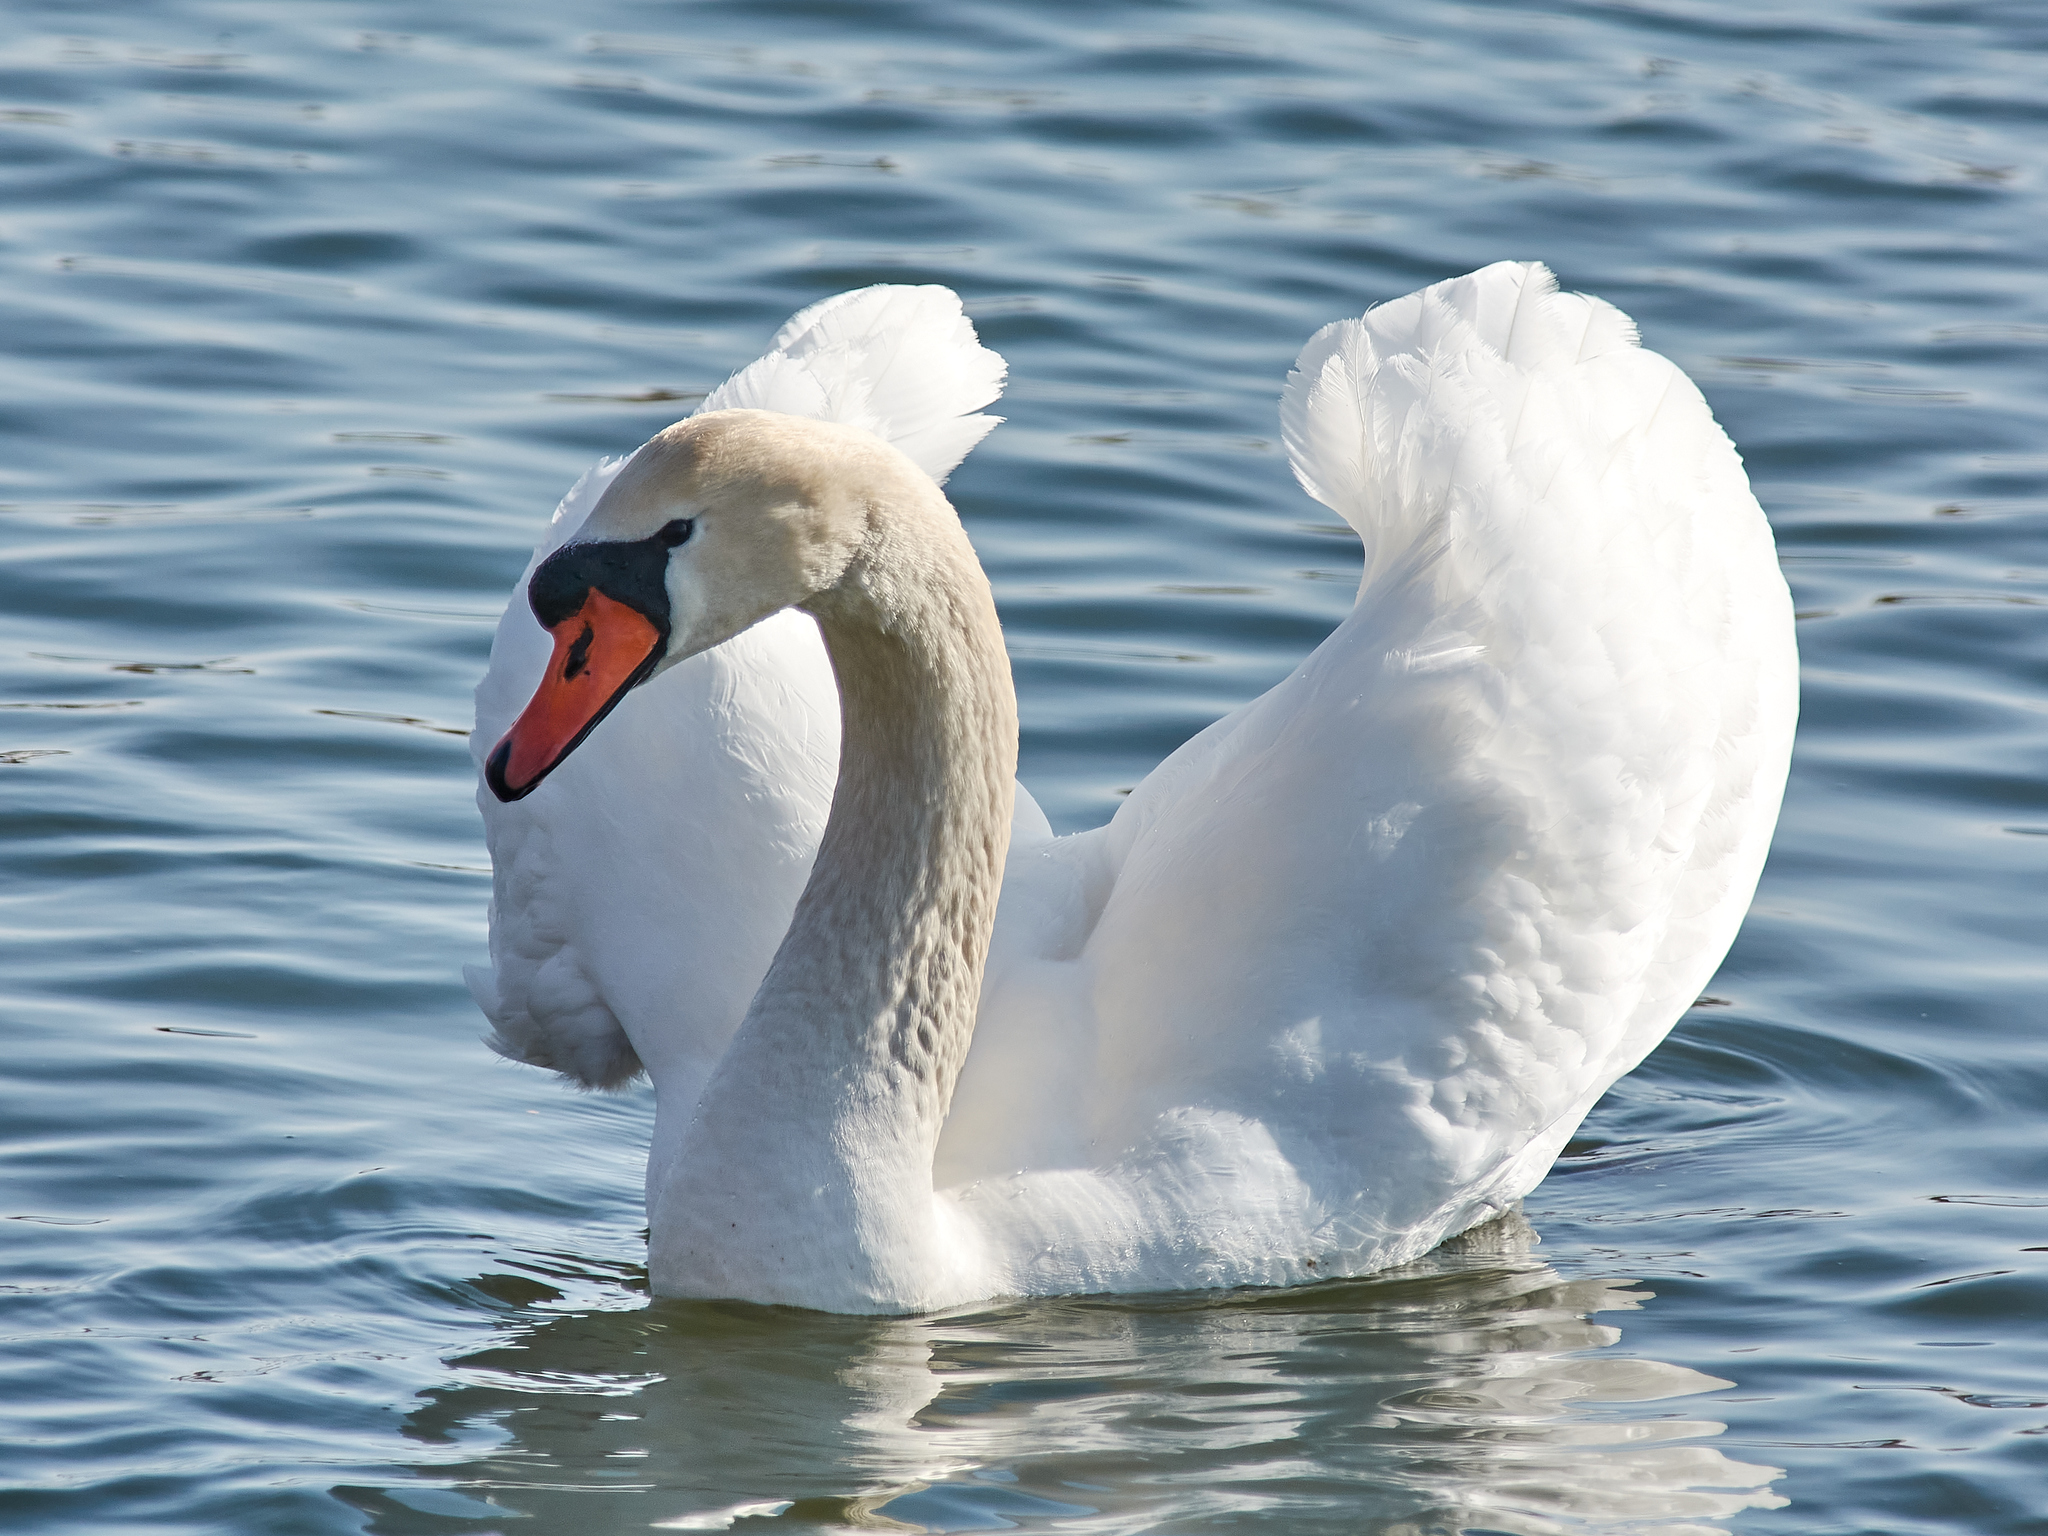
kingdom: Animalia
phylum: Chordata
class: Aves
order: Anseriformes
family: Anatidae
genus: Cygnus
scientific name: Cygnus olor
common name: Mute swan
